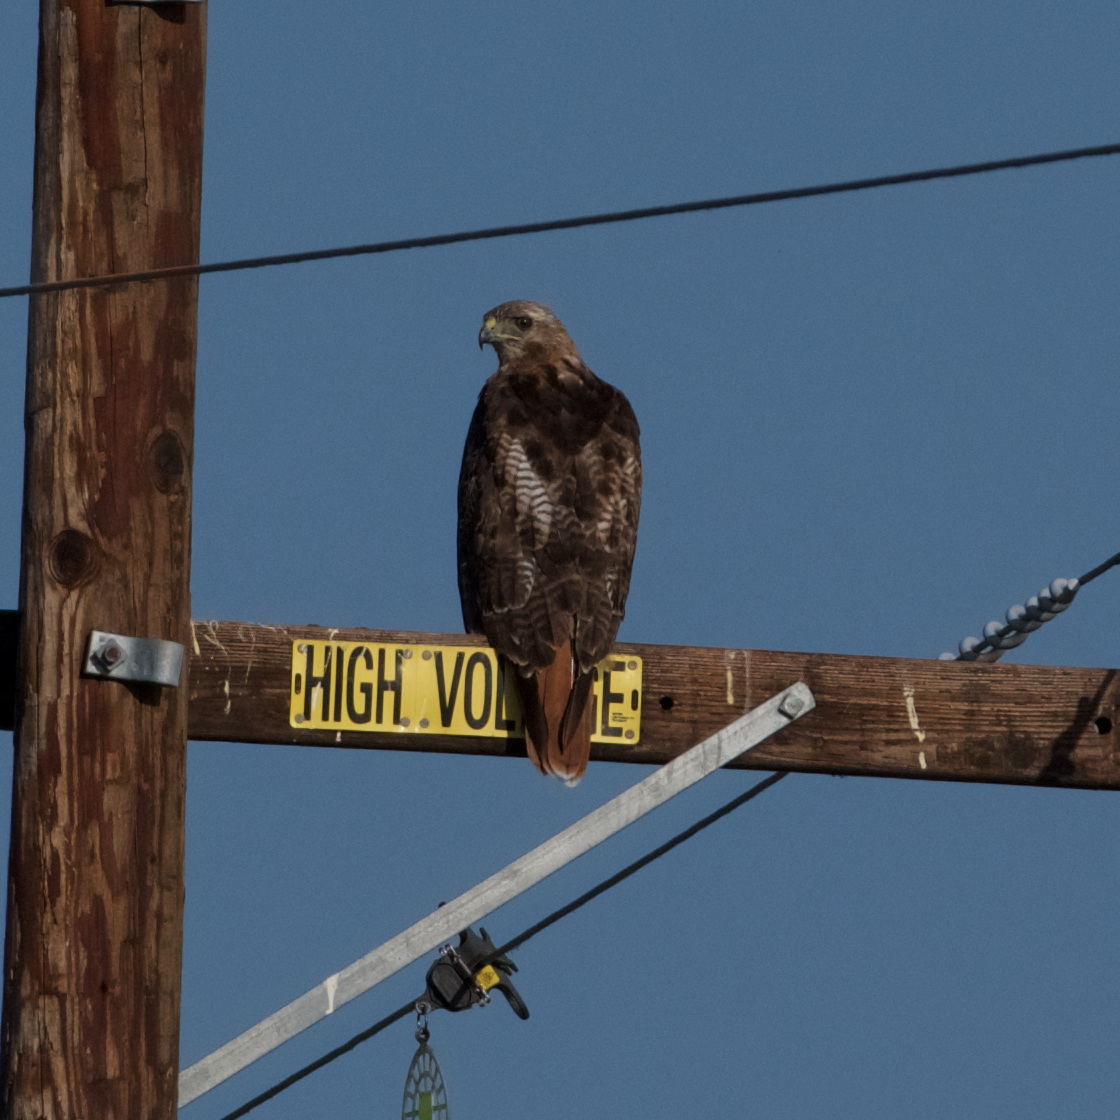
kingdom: Animalia
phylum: Chordata
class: Aves
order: Accipitriformes
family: Accipitridae
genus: Buteo
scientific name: Buteo jamaicensis
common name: Red-tailed hawk
